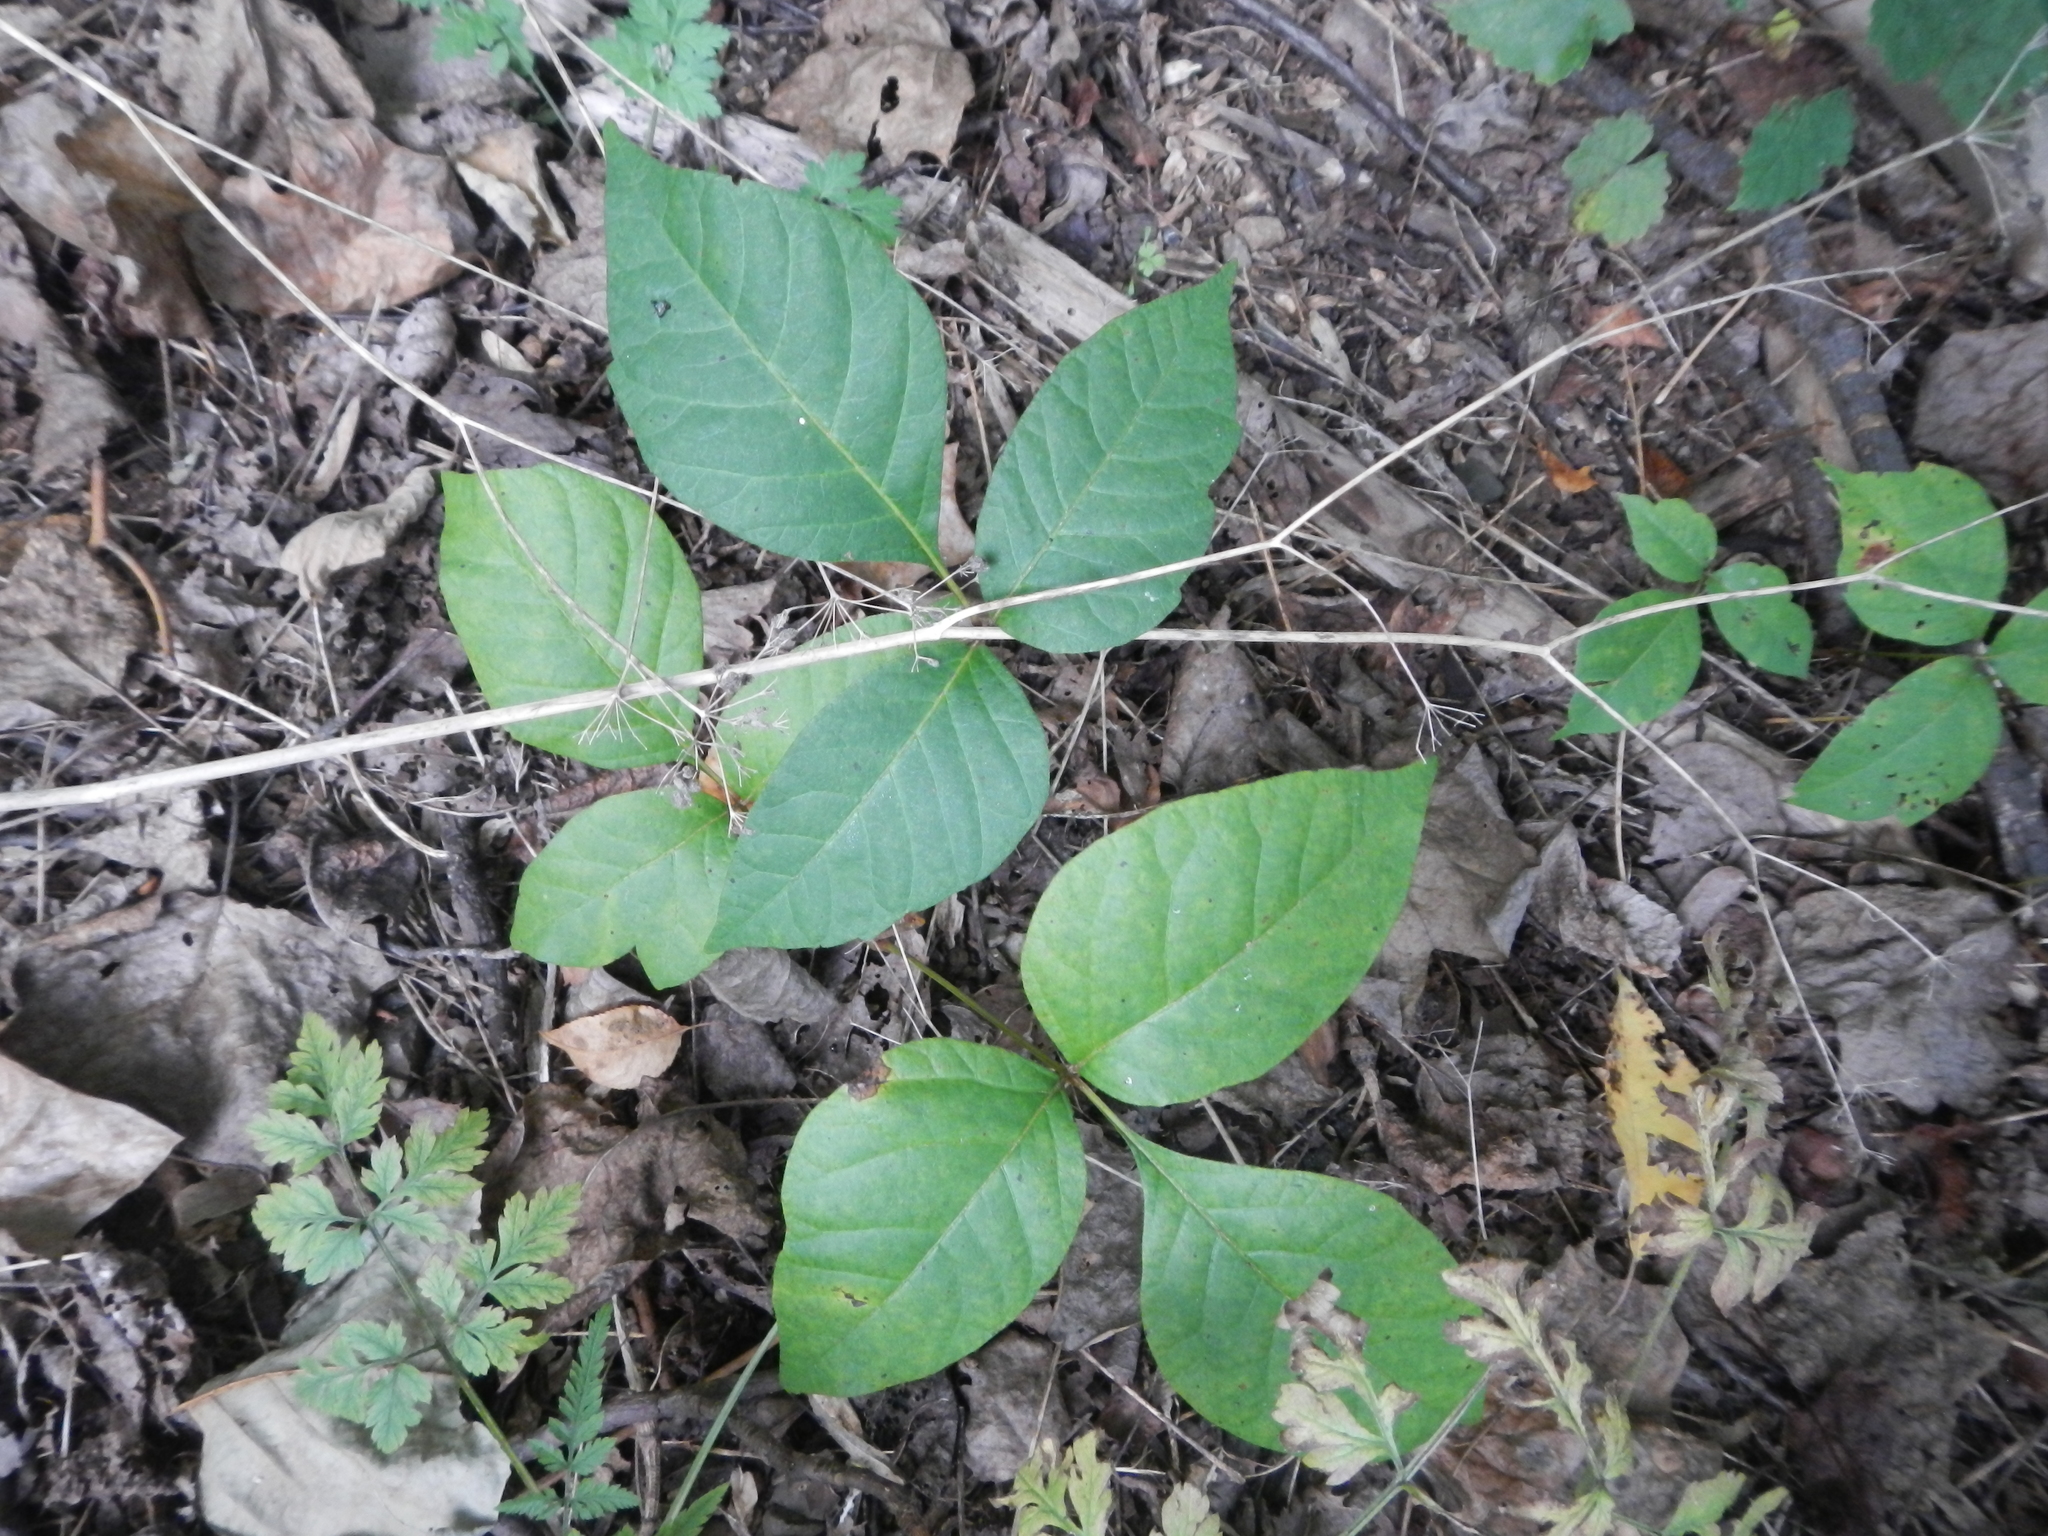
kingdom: Plantae
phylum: Tracheophyta
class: Magnoliopsida
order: Sapindales
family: Anacardiaceae
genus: Toxicodendron
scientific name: Toxicodendron radicans
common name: Poison ivy
